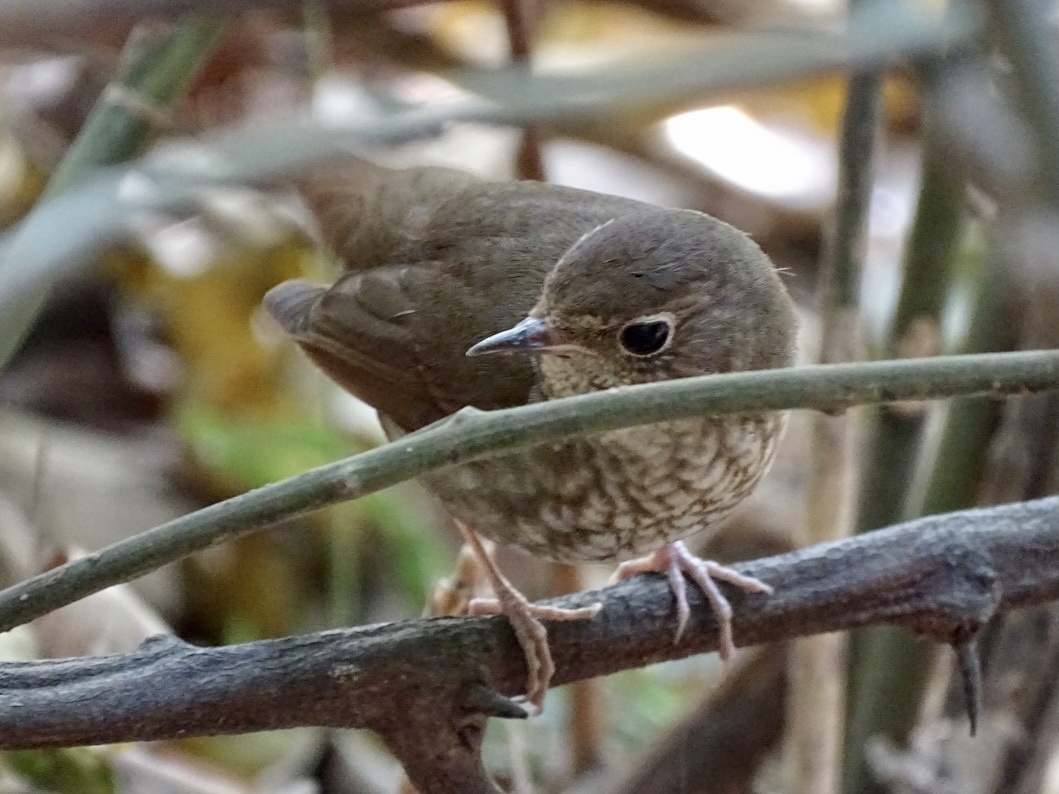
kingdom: Animalia
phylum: Chordata
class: Aves
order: Passeriformes
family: Muscicapidae
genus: Larvivora
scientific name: Larvivora sibilans
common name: Rufous-tailed robin
